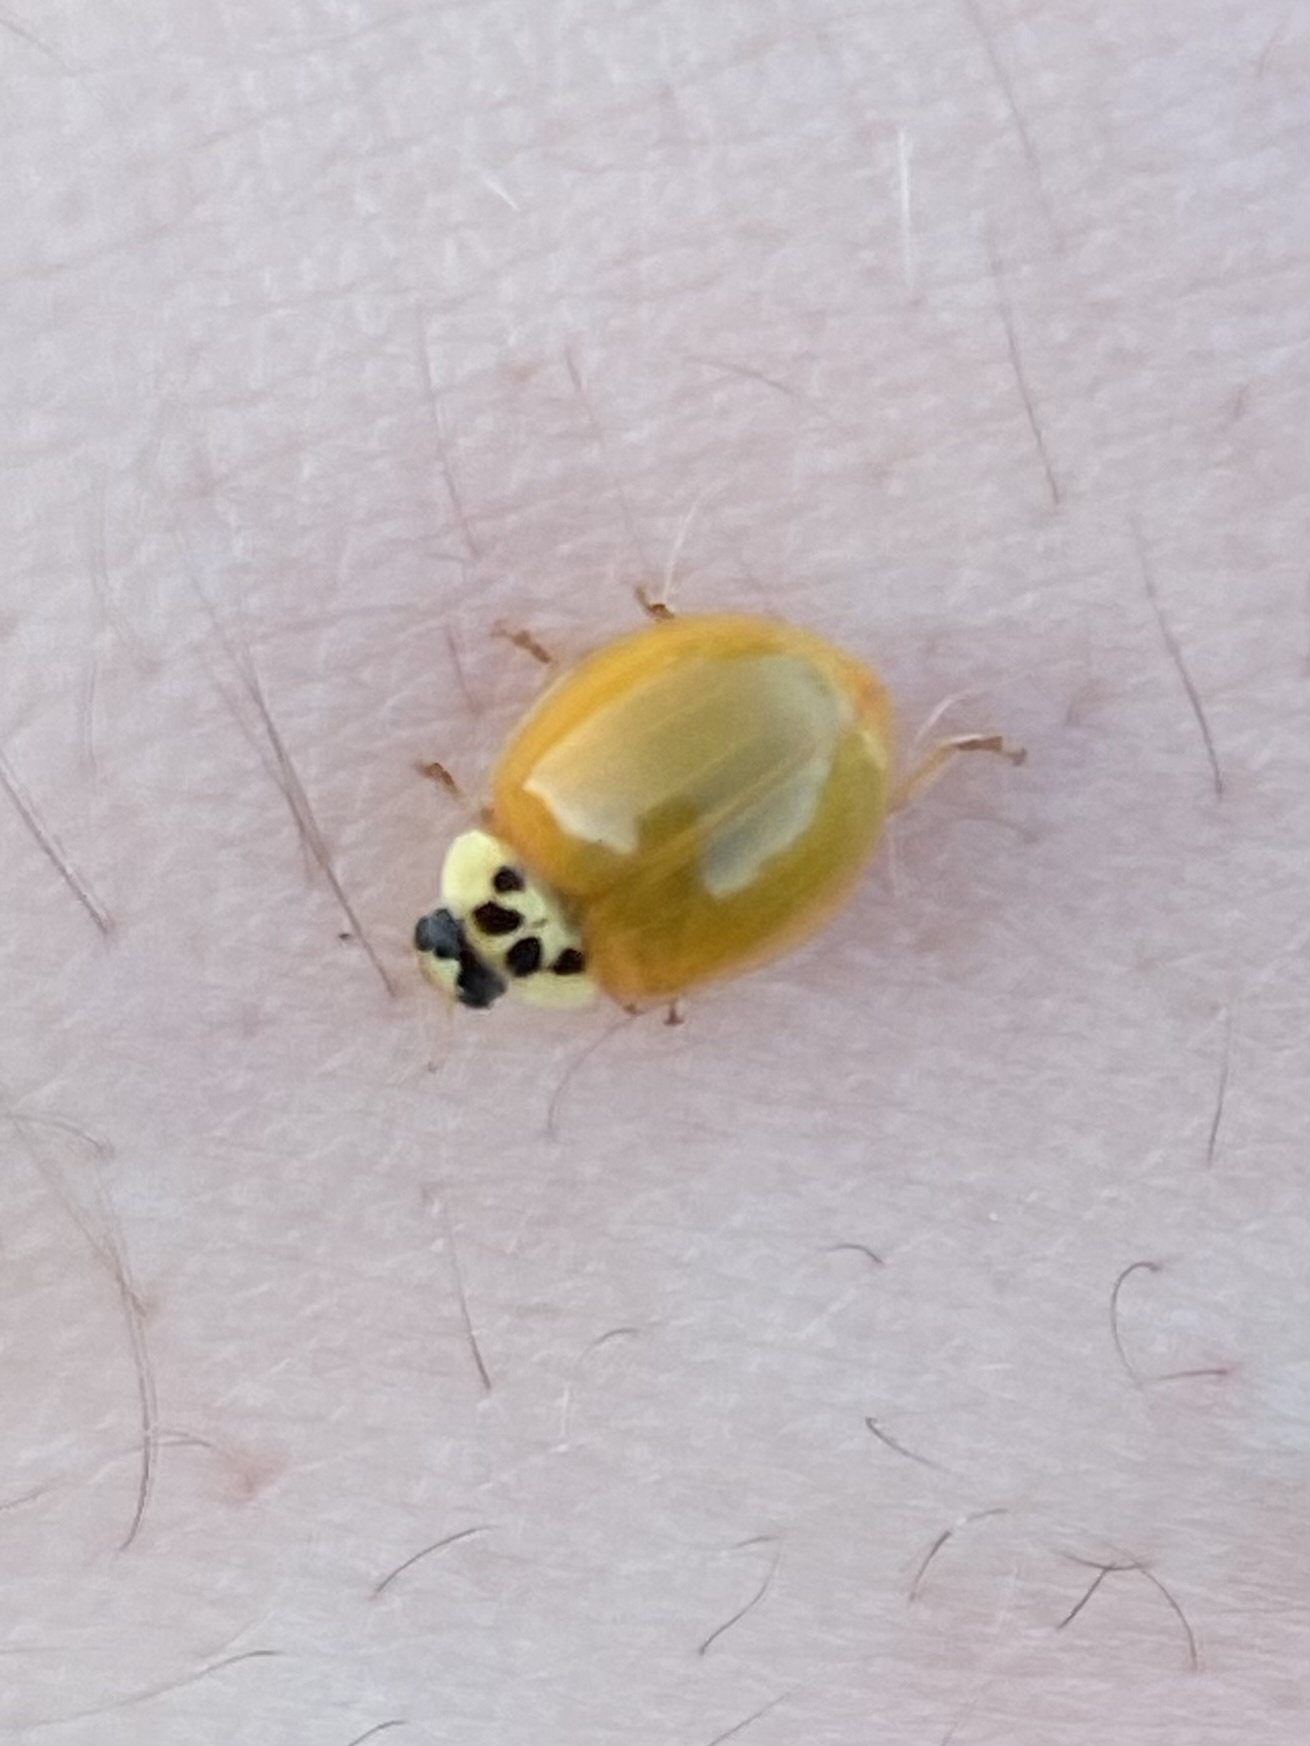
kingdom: Animalia
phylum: Arthropoda
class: Insecta
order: Coleoptera
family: Coccinellidae
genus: Harmonia
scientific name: Harmonia axyridis
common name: Harlequin ladybird
